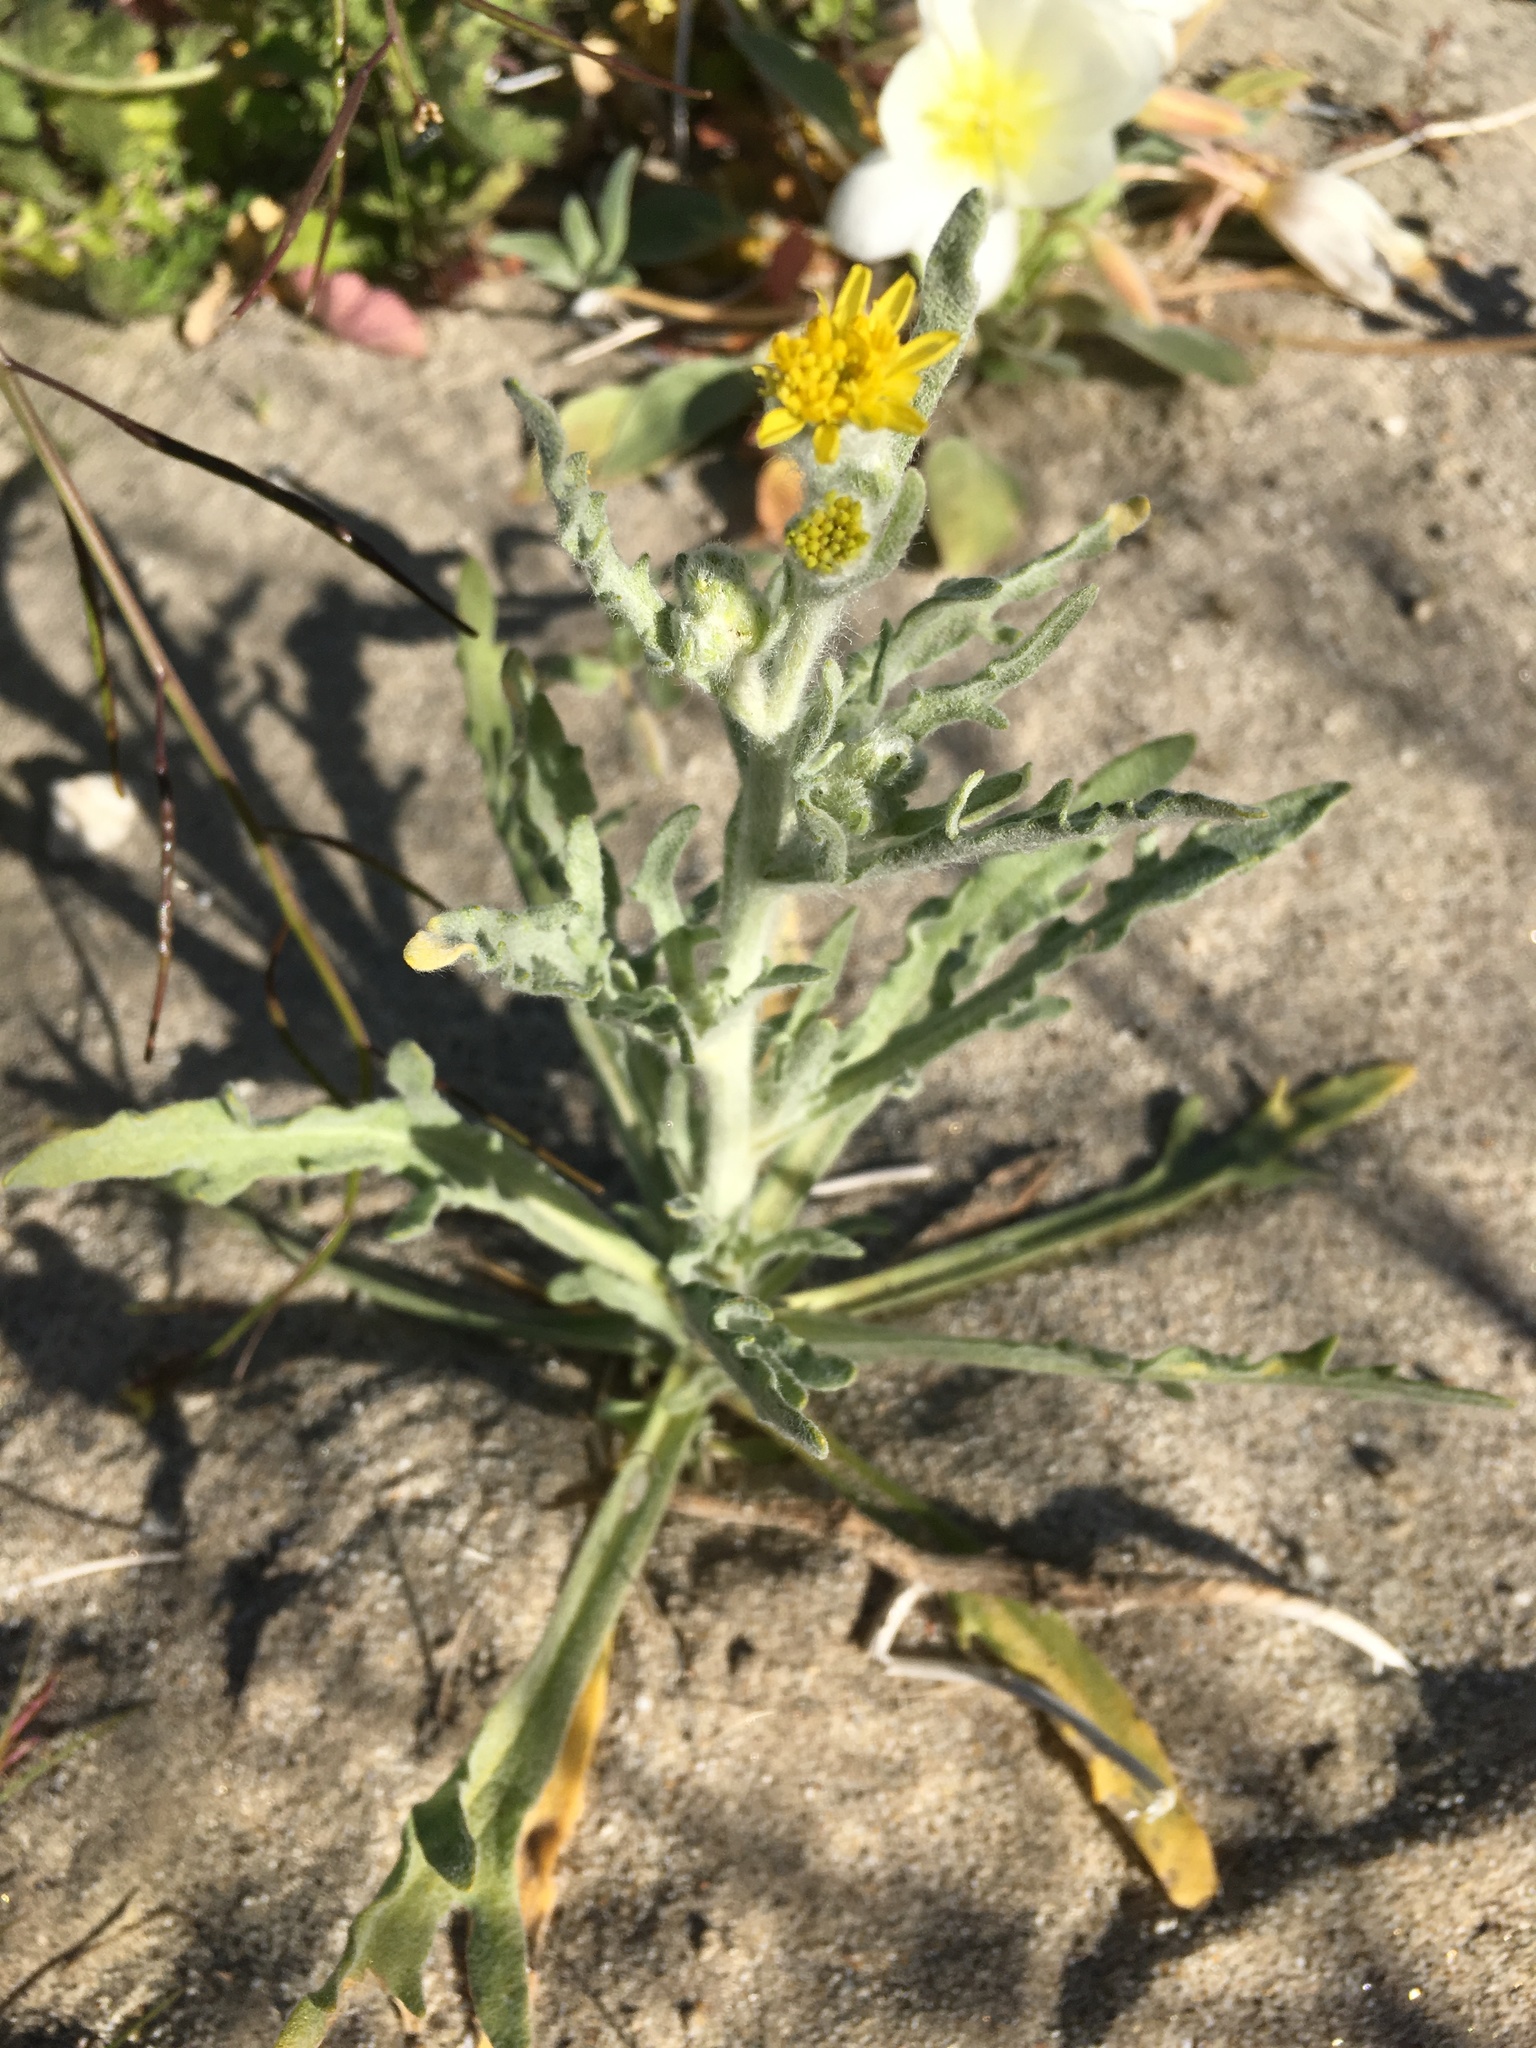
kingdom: Plantae
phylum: Tracheophyta
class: Magnoliopsida
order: Asterales
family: Asteraceae
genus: Baileya
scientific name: Baileya pauciradiata
